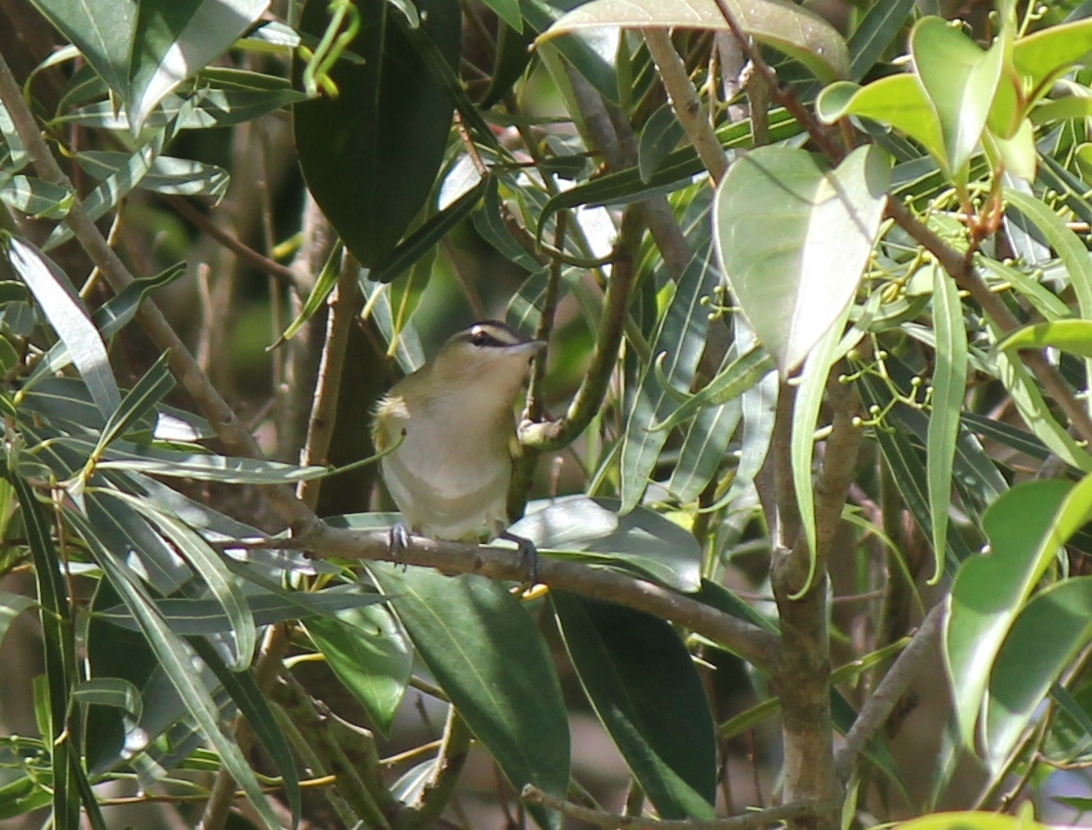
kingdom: Animalia
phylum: Chordata
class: Aves
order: Passeriformes
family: Vireonidae
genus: Vireo
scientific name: Vireo olivaceus
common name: Red-eyed vireo
